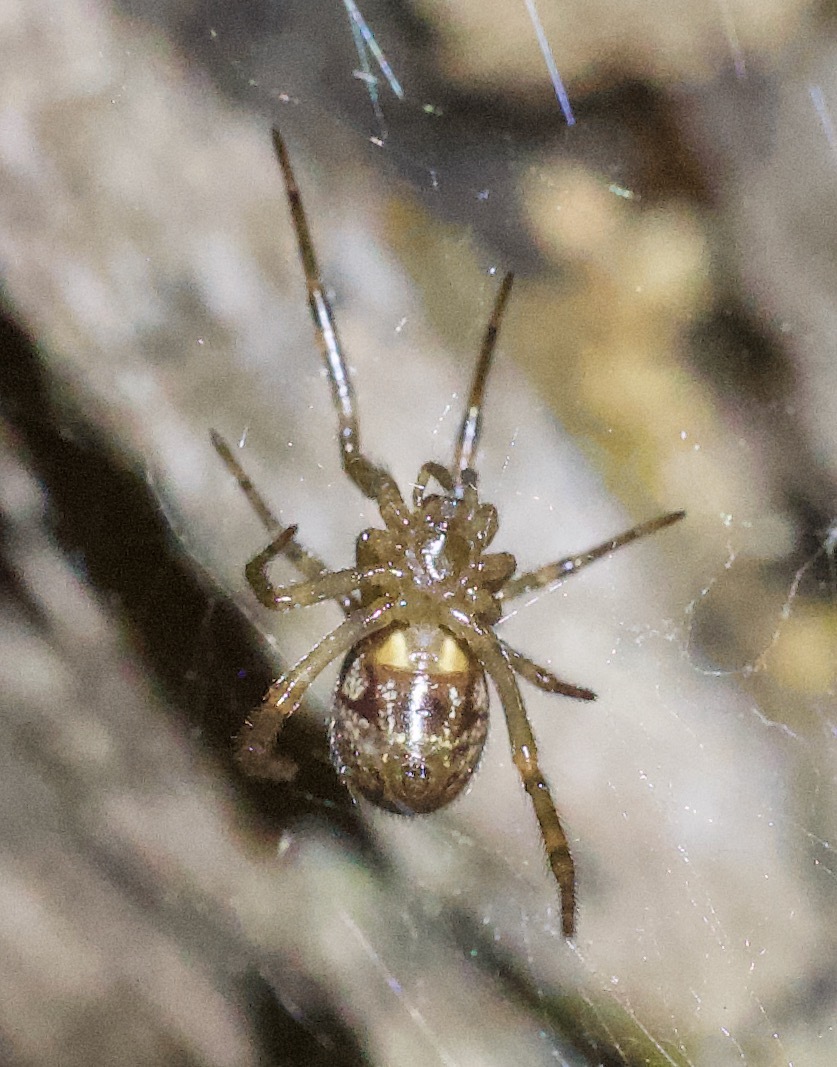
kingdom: Animalia
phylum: Arthropoda
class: Arachnida
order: Araneae
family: Theridiidae
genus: Steatoda
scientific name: Steatoda nobilis
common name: Cobweb weaver
